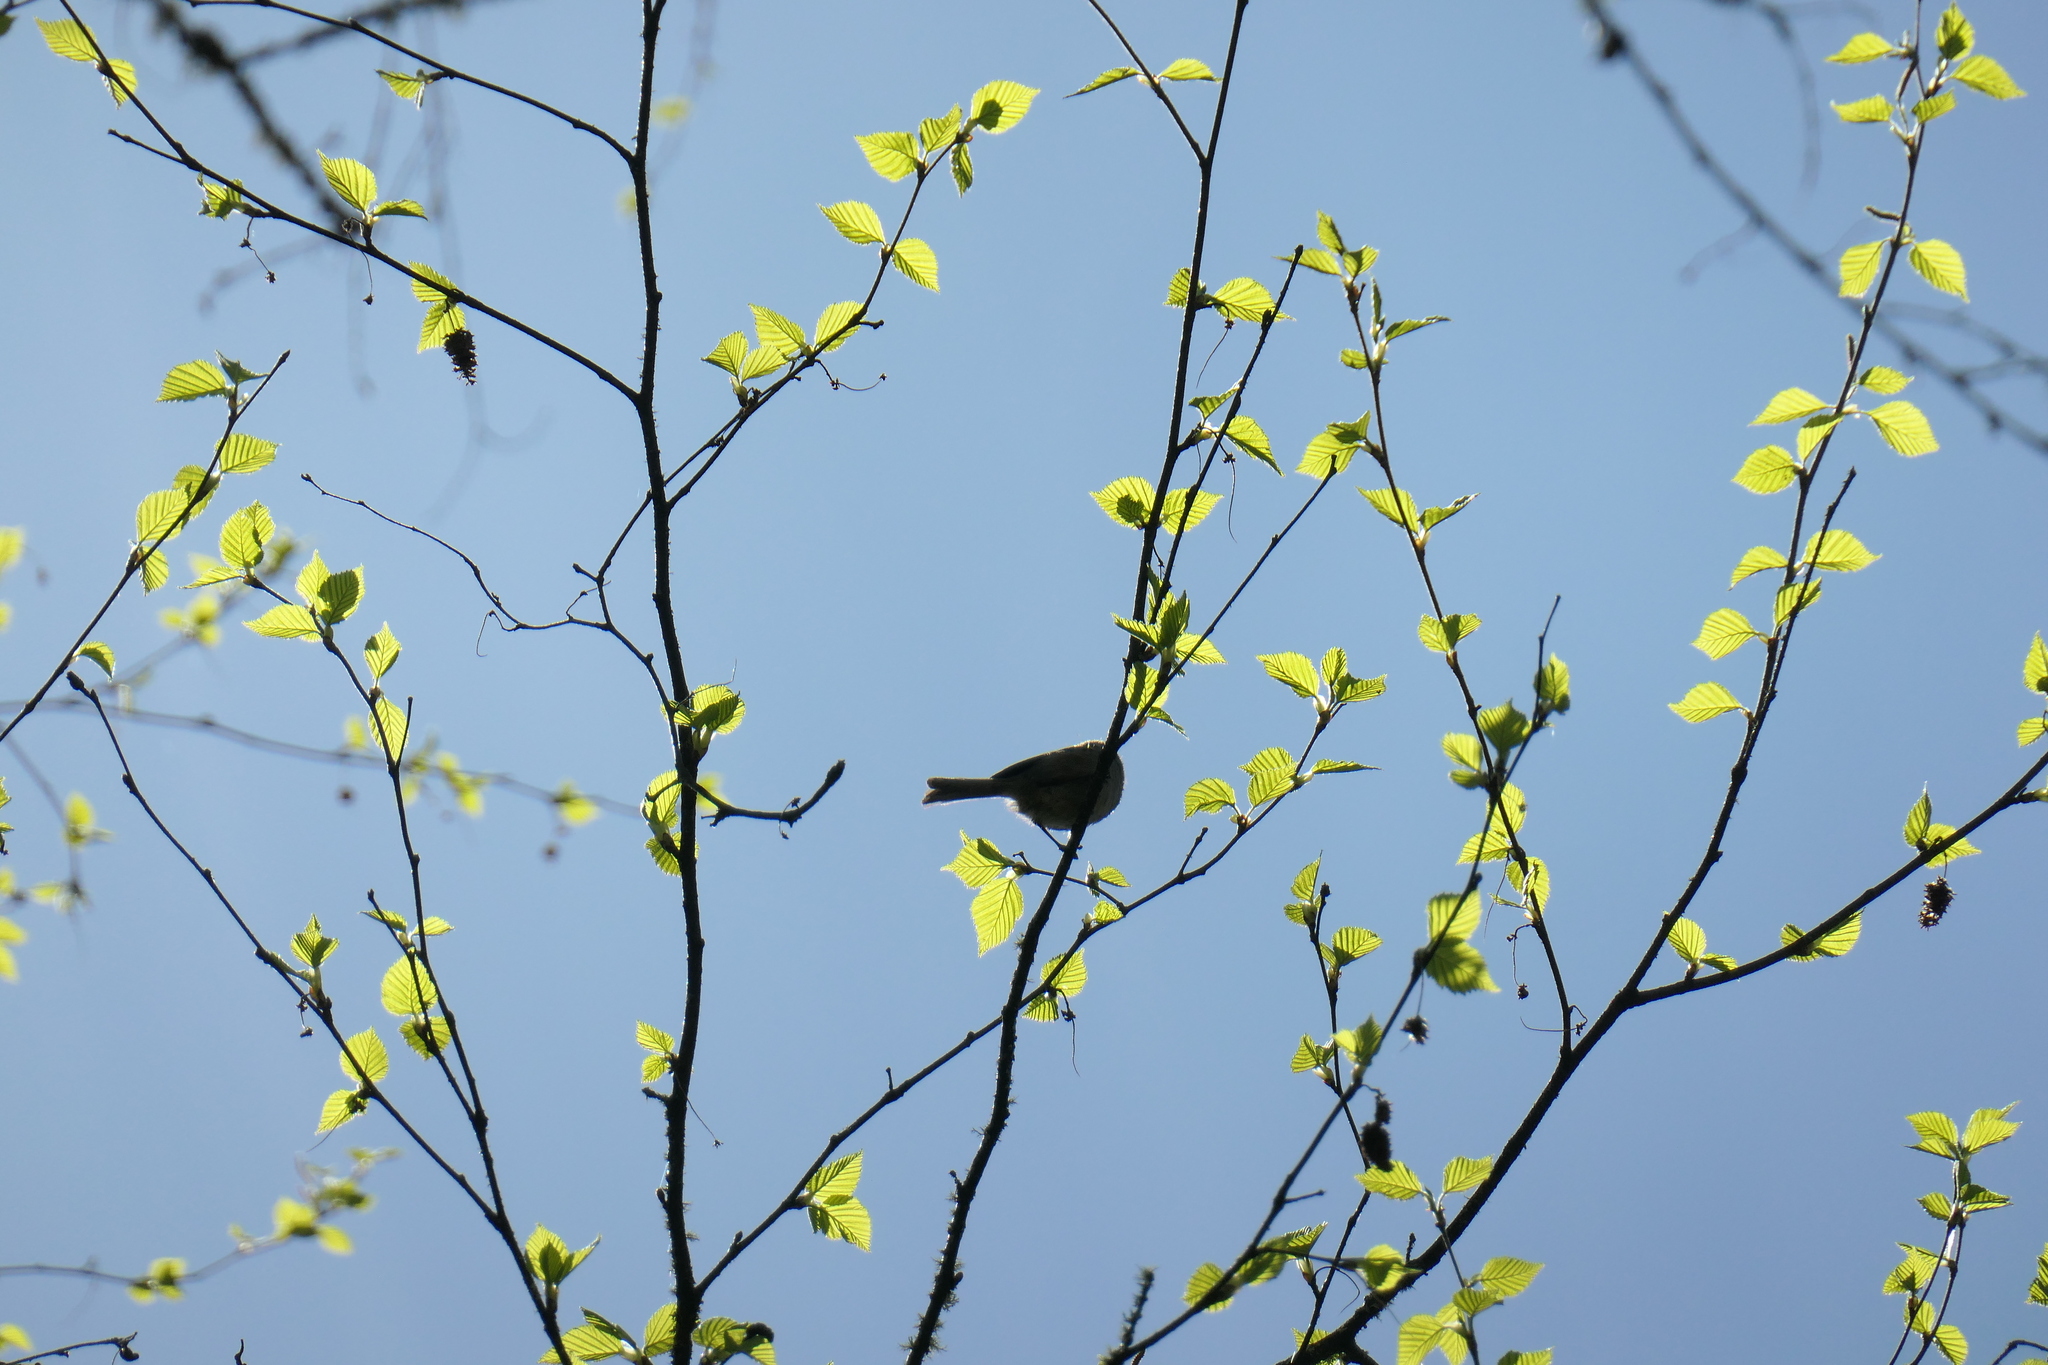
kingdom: Animalia
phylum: Chordata
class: Aves
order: Passeriformes
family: Aegithalidae
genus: Psaltriparus
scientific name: Psaltriparus minimus
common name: American bushtit
